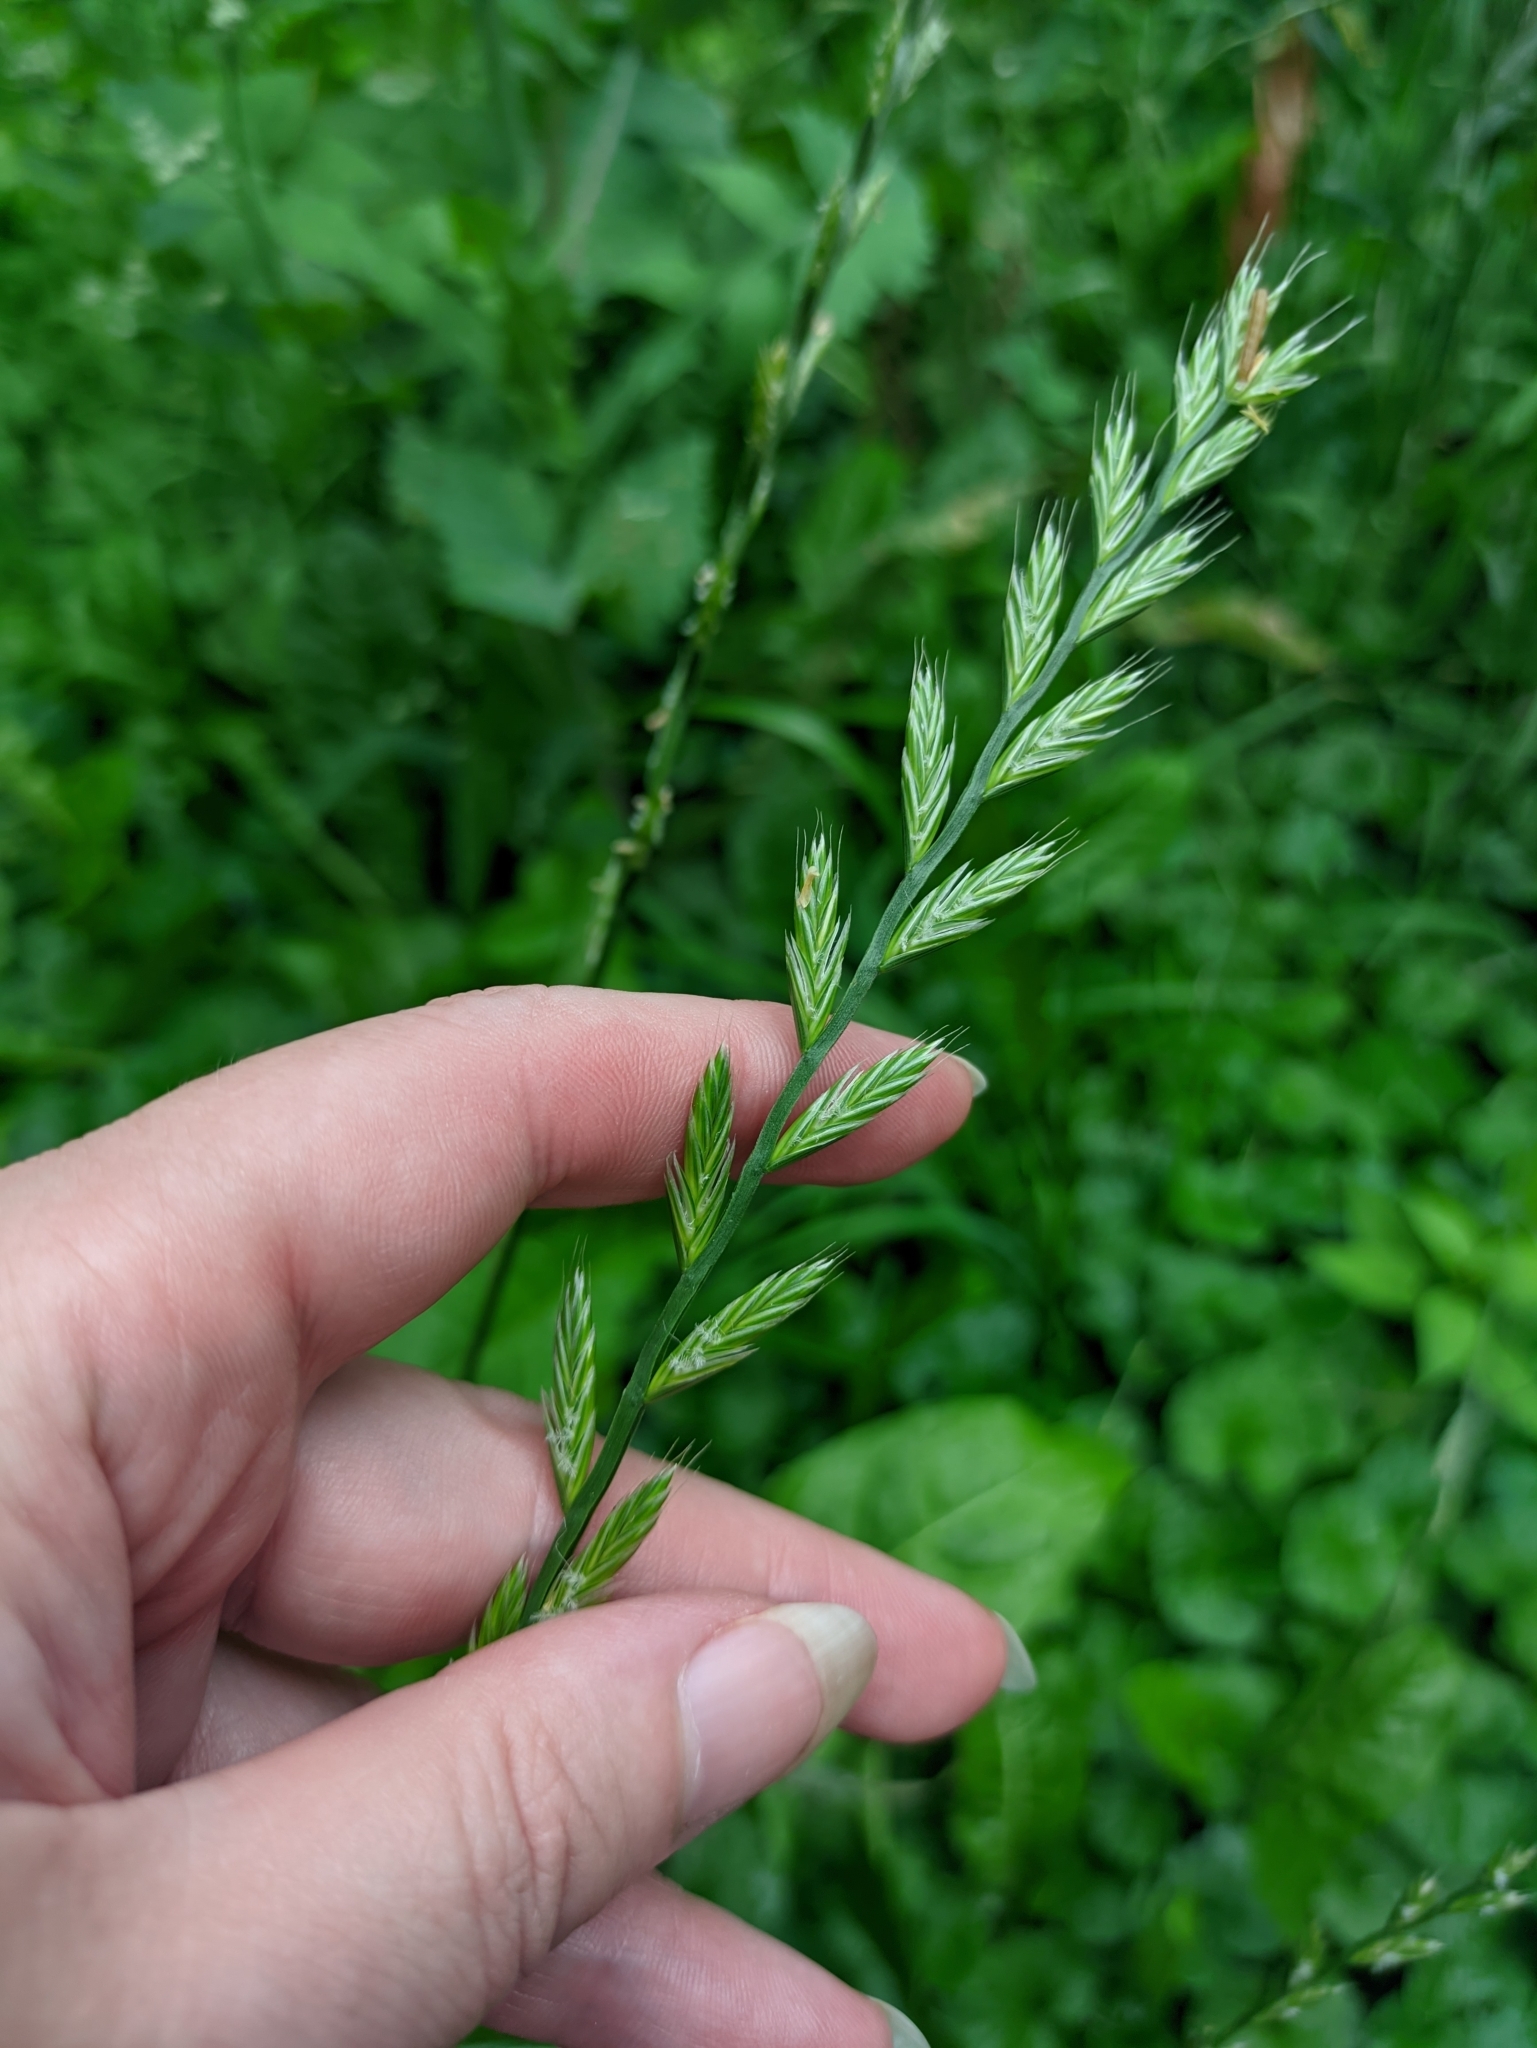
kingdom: Plantae
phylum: Tracheophyta
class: Liliopsida
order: Poales
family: Poaceae
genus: Lolium
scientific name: Lolium multiflorum
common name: Annual ryegrass
